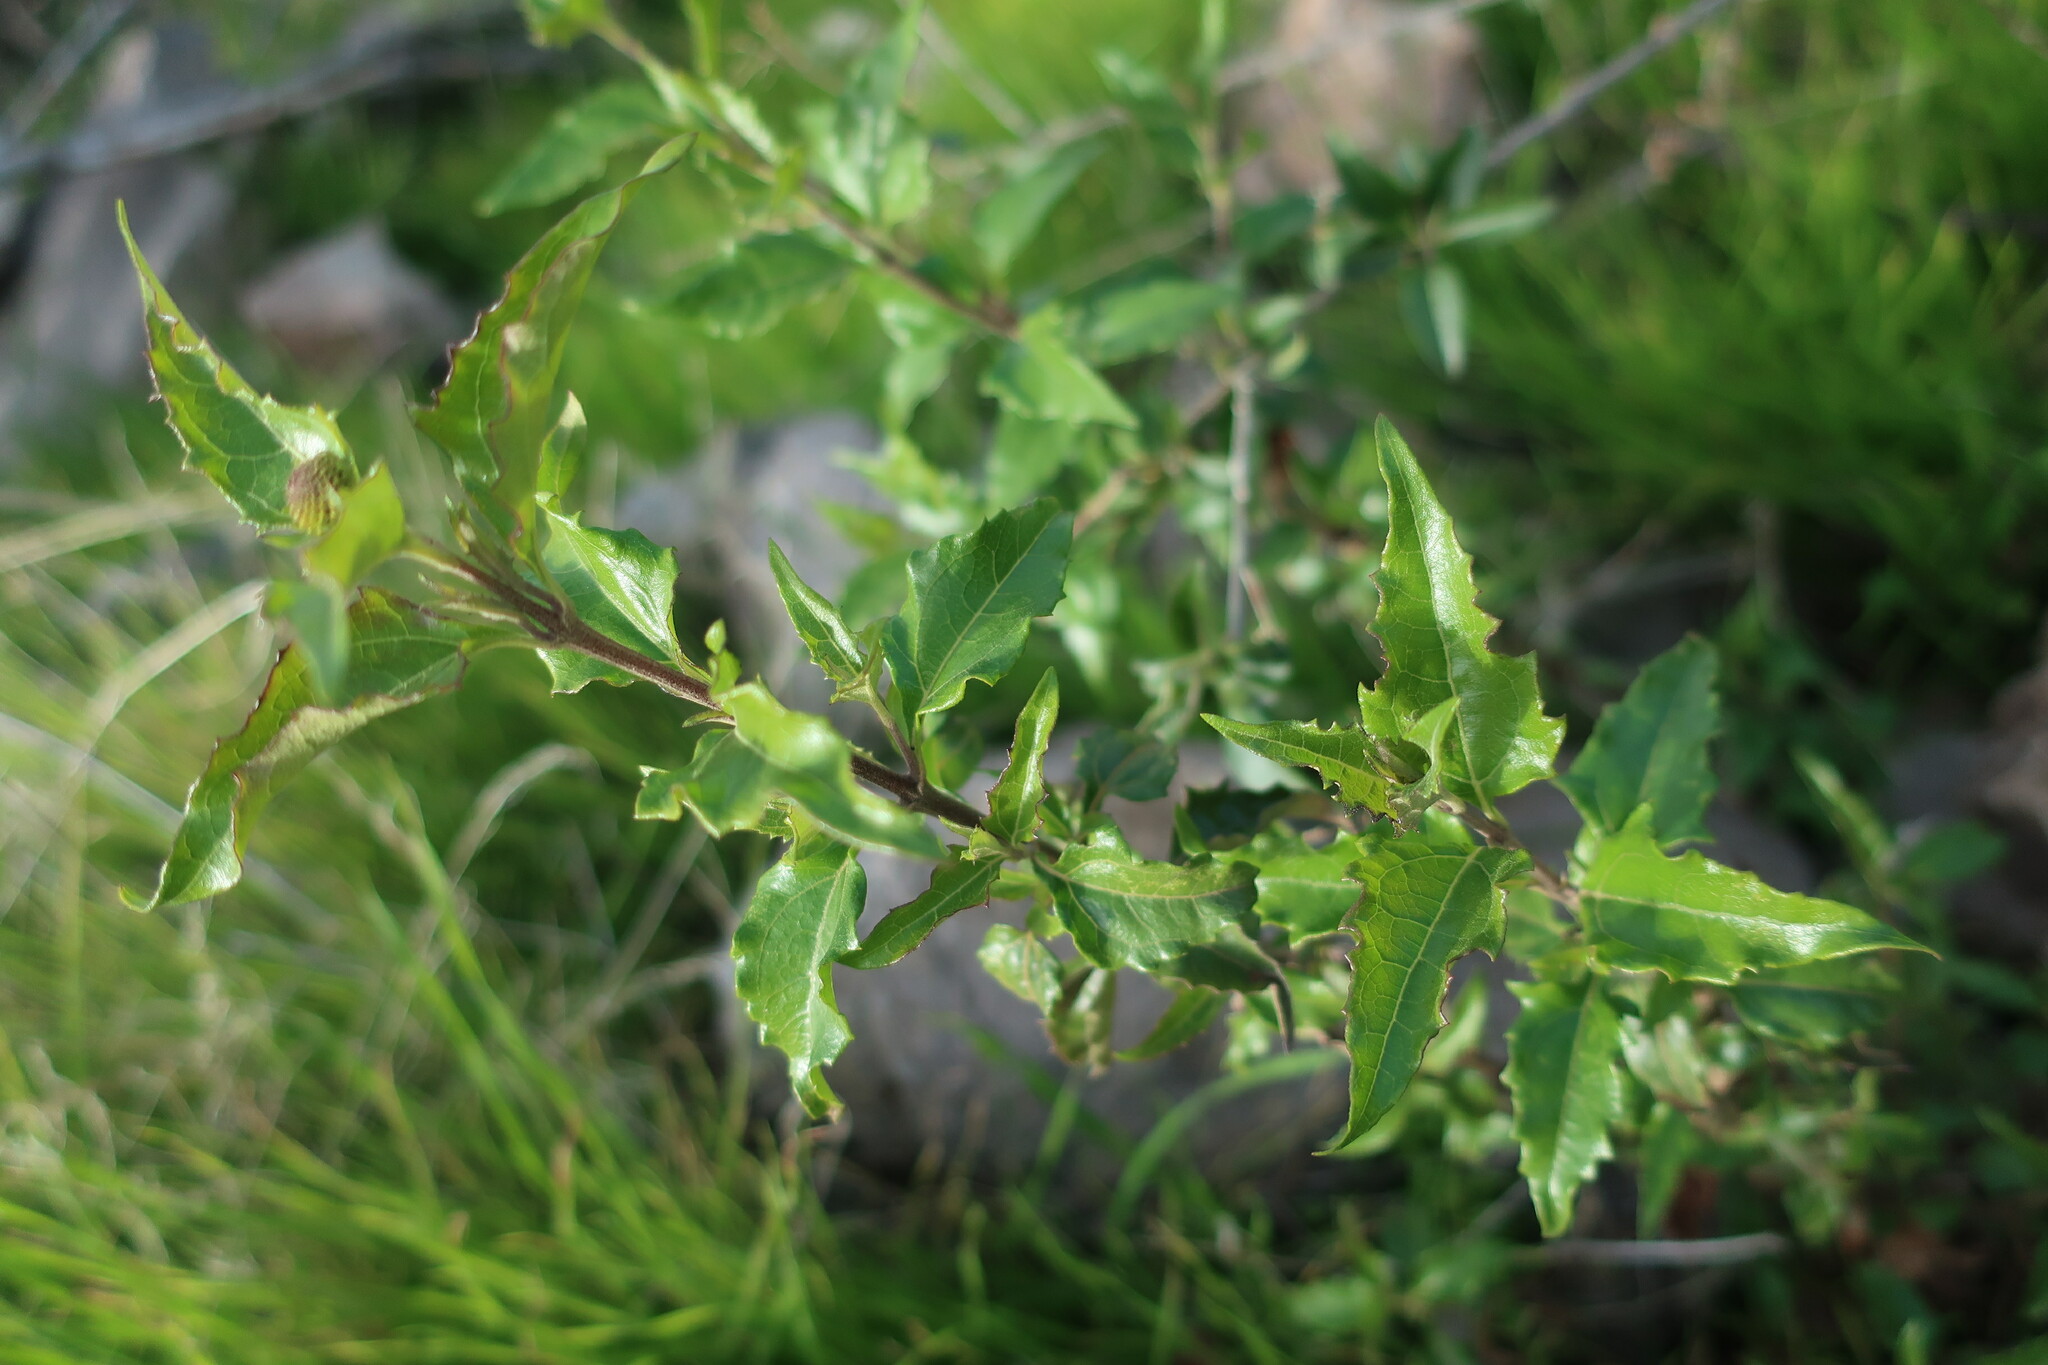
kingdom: Plantae
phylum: Tracheophyta
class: Magnoliopsida
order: Asterales
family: Asteraceae
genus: Podanthus
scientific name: Podanthus mitiqui
